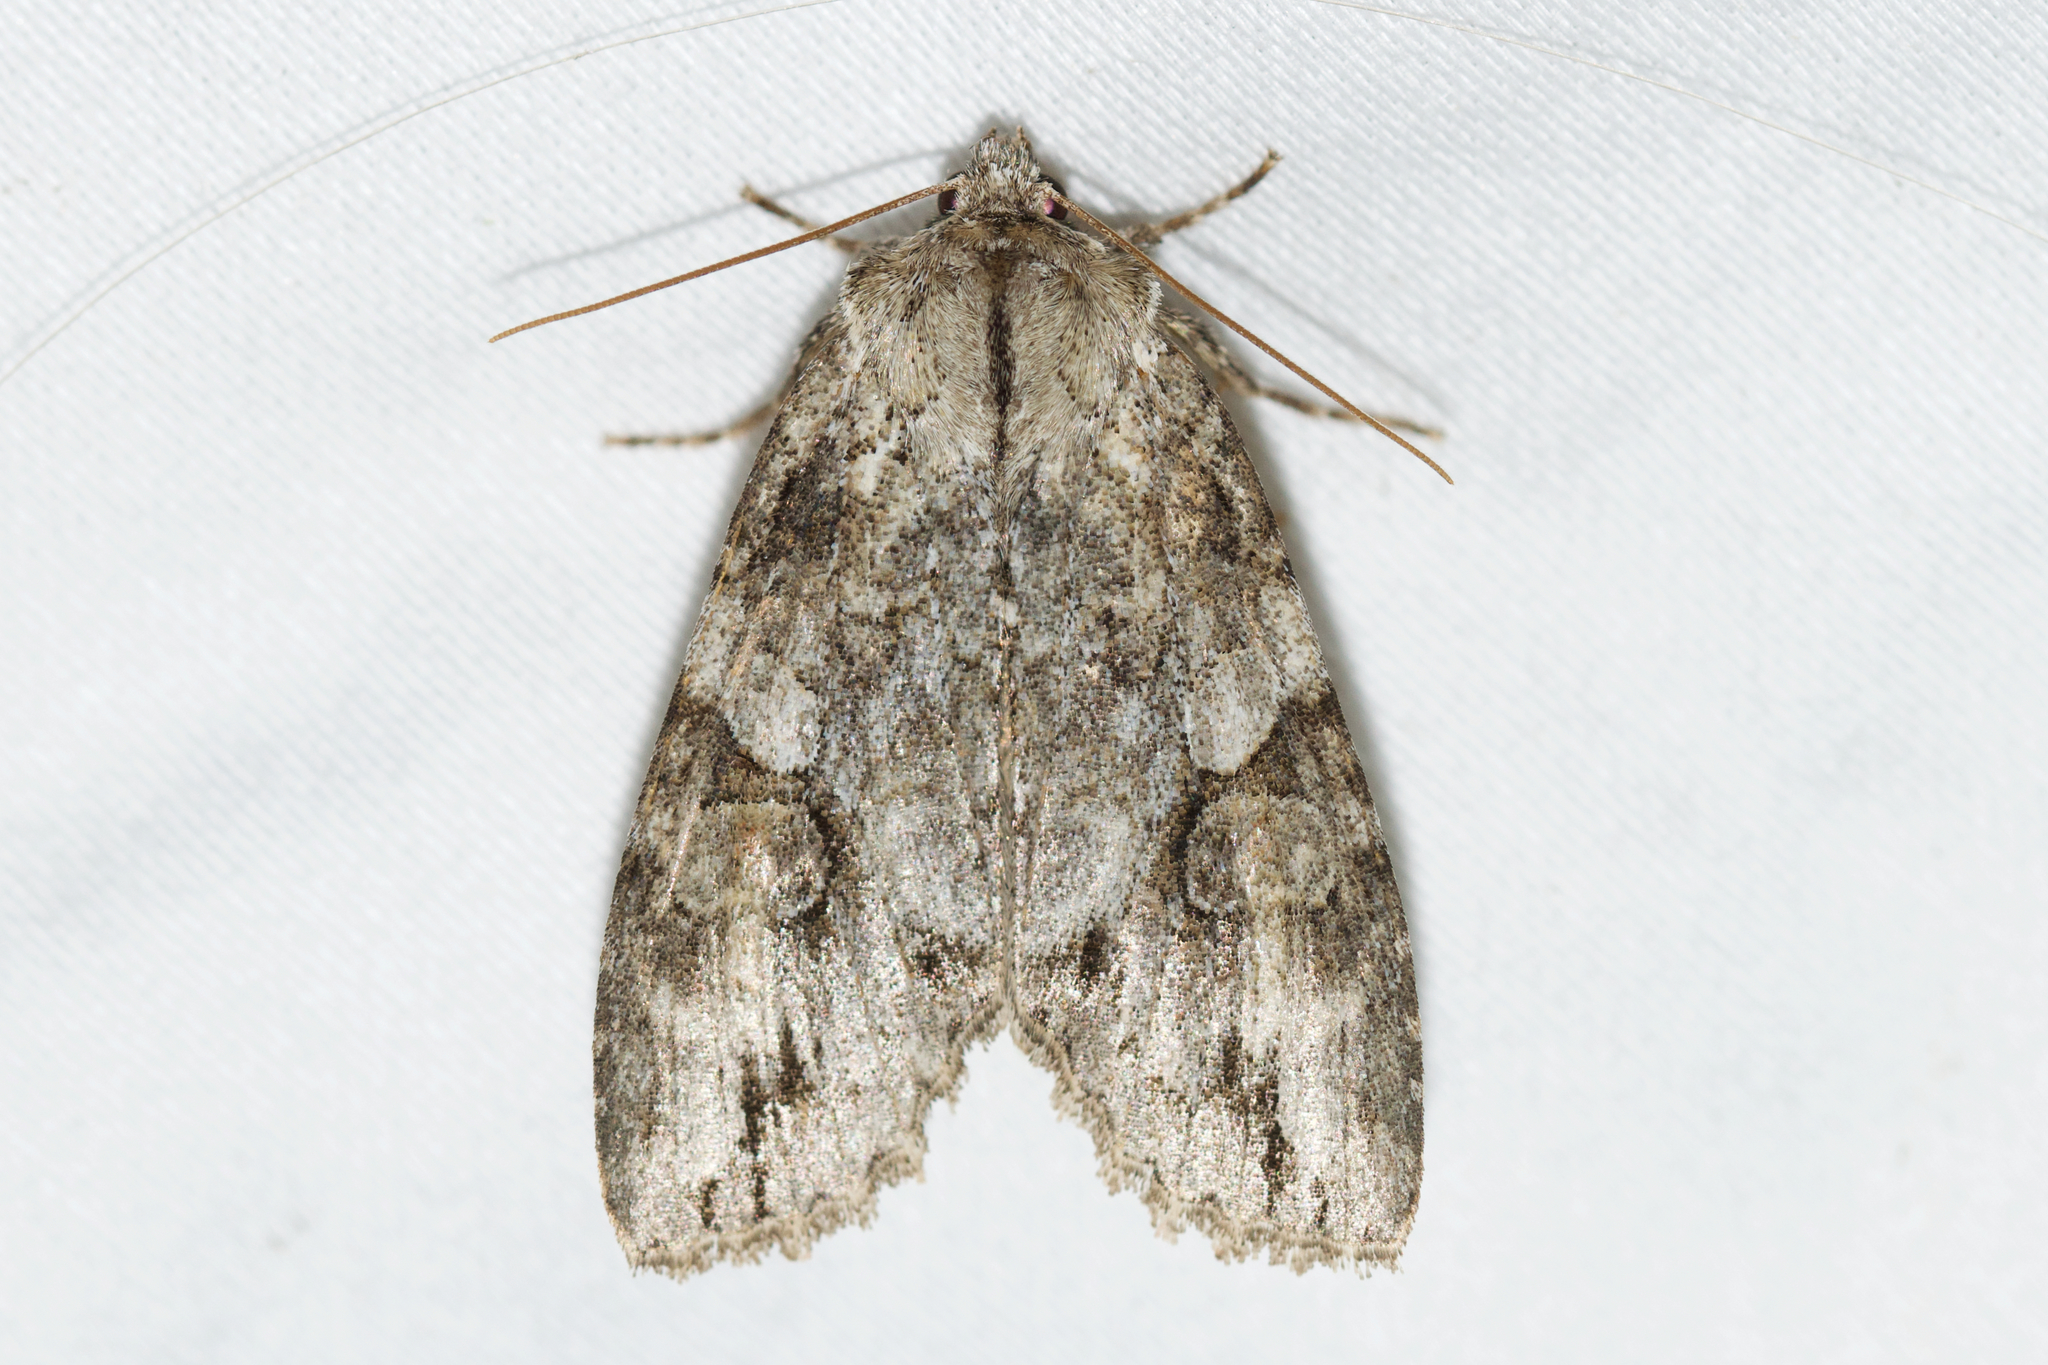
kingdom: Animalia
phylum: Arthropoda
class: Insecta
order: Lepidoptera
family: Noctuidae
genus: Achatia
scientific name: Achatia latex
